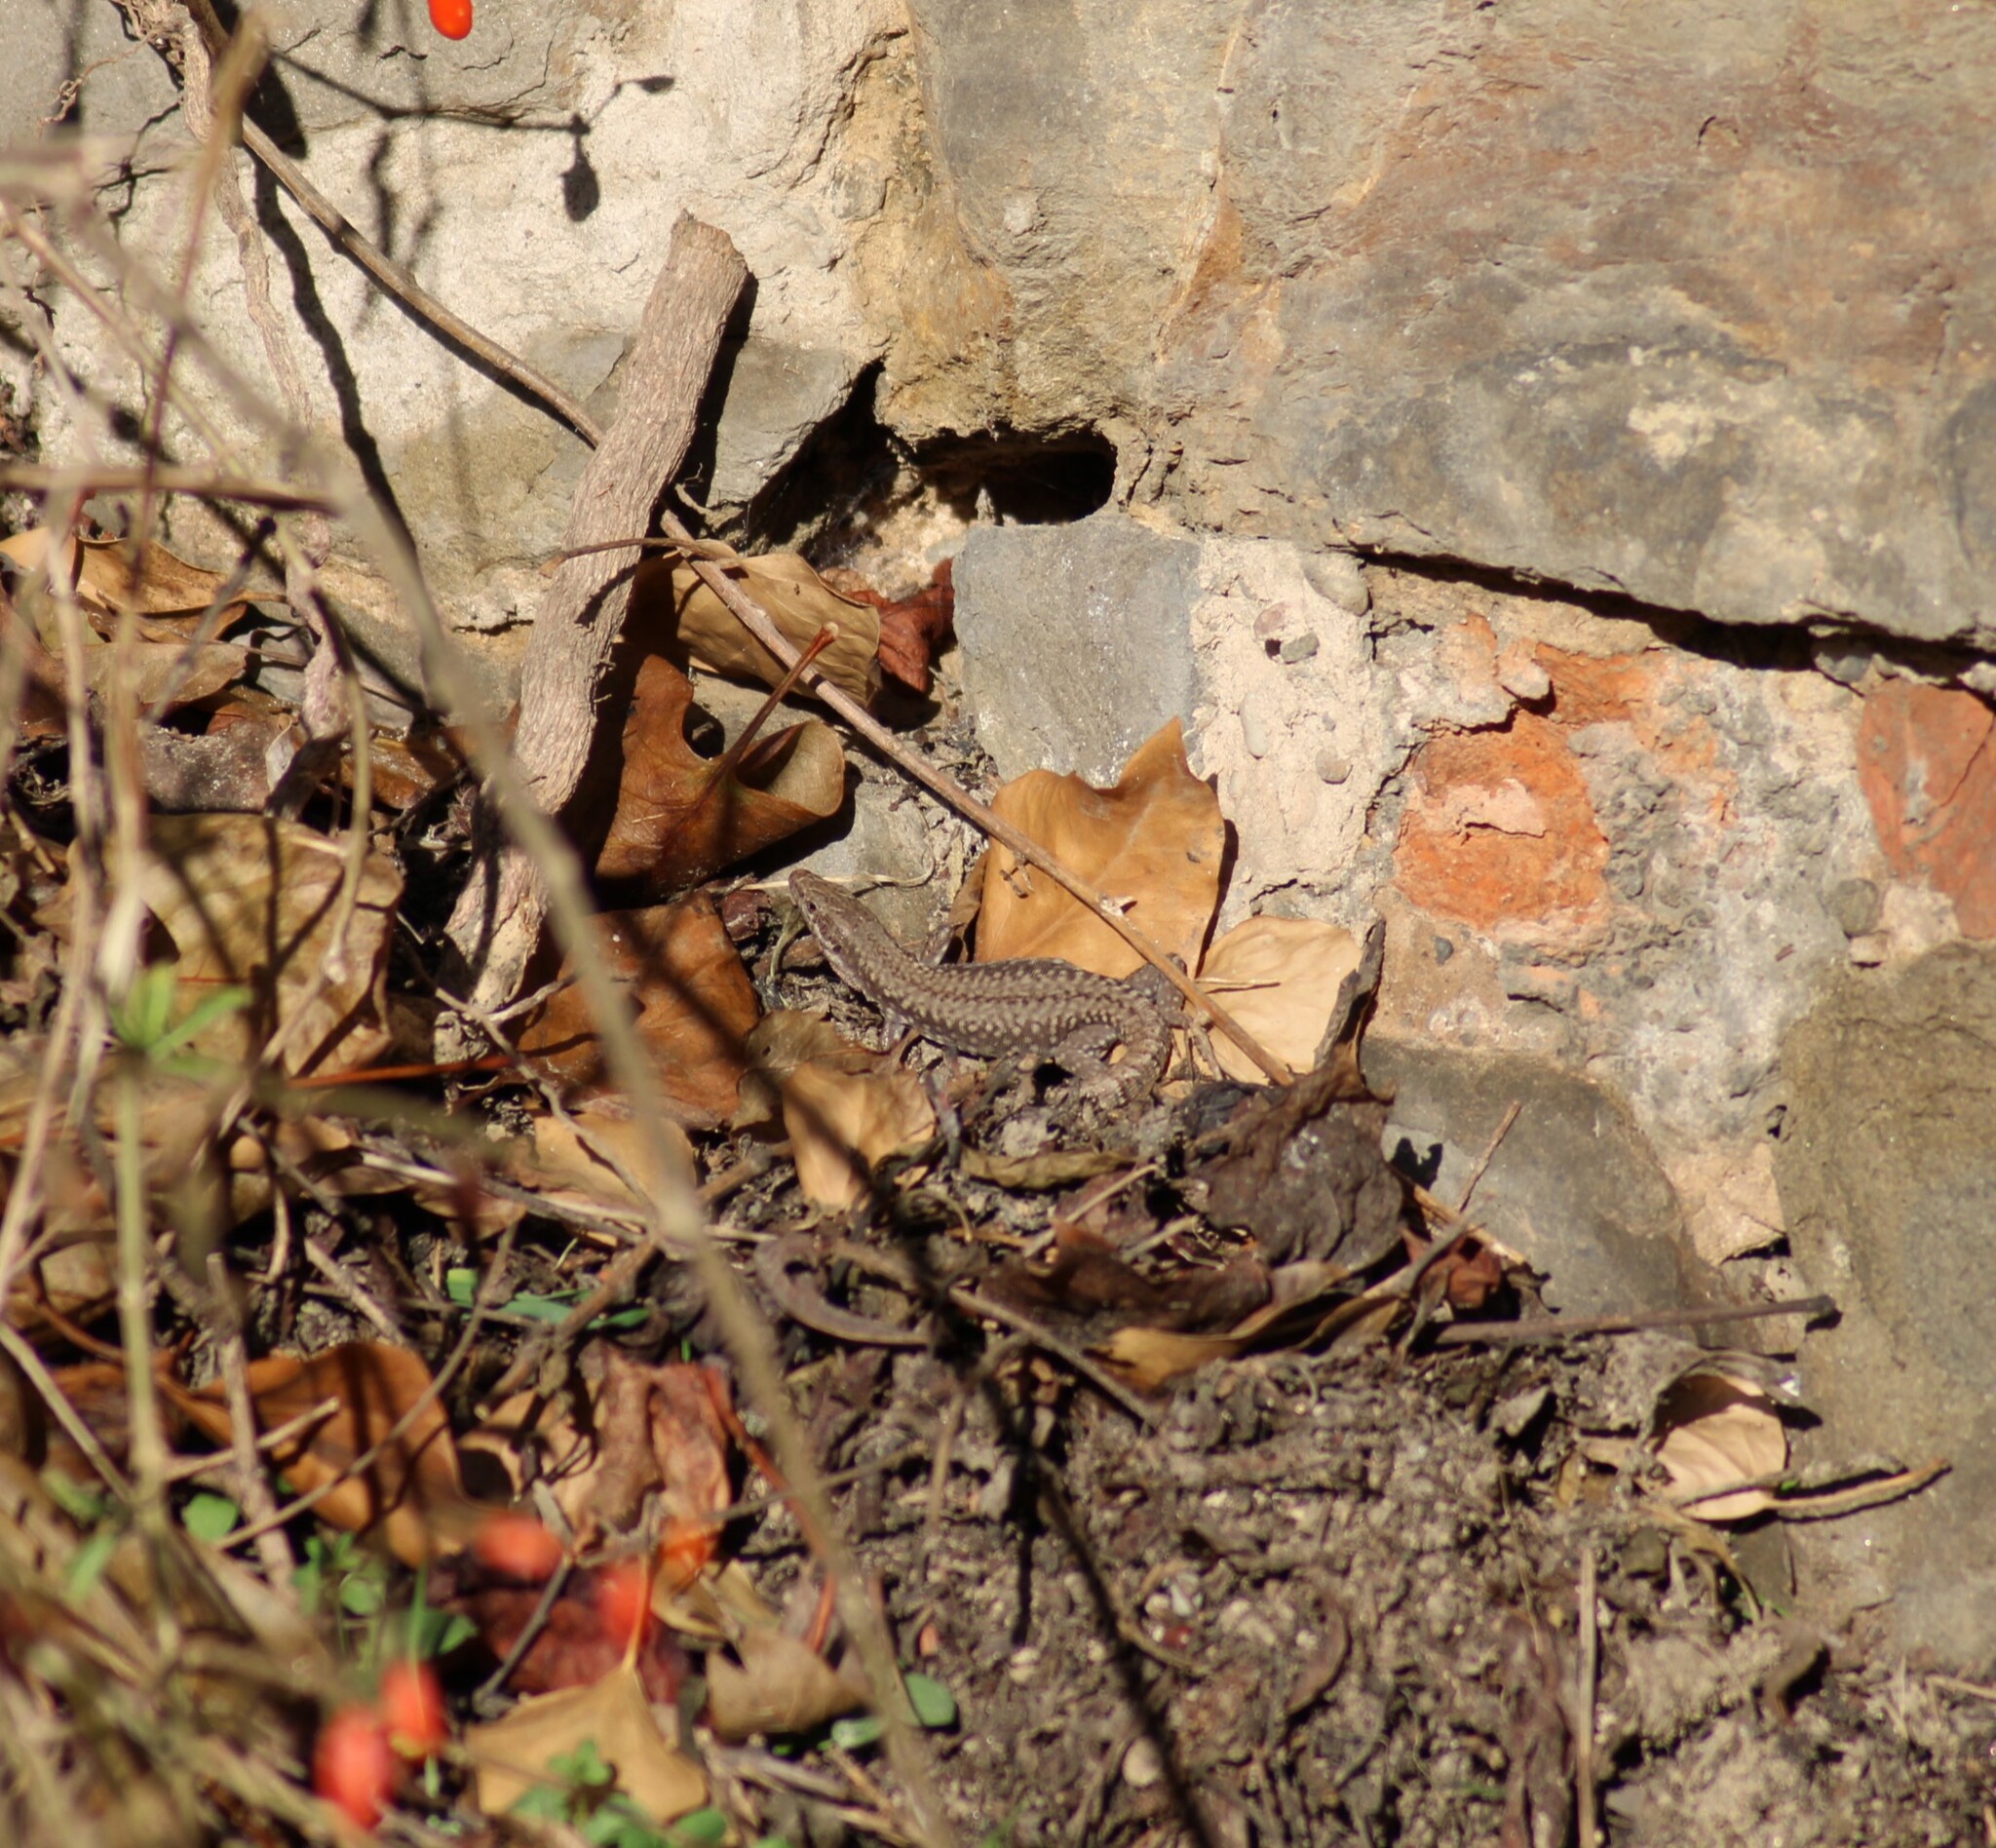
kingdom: Animalia
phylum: Chordata
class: Squamata
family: Lacertidae
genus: Podarcis
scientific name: Podarcis muralis
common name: Common wall lizard
